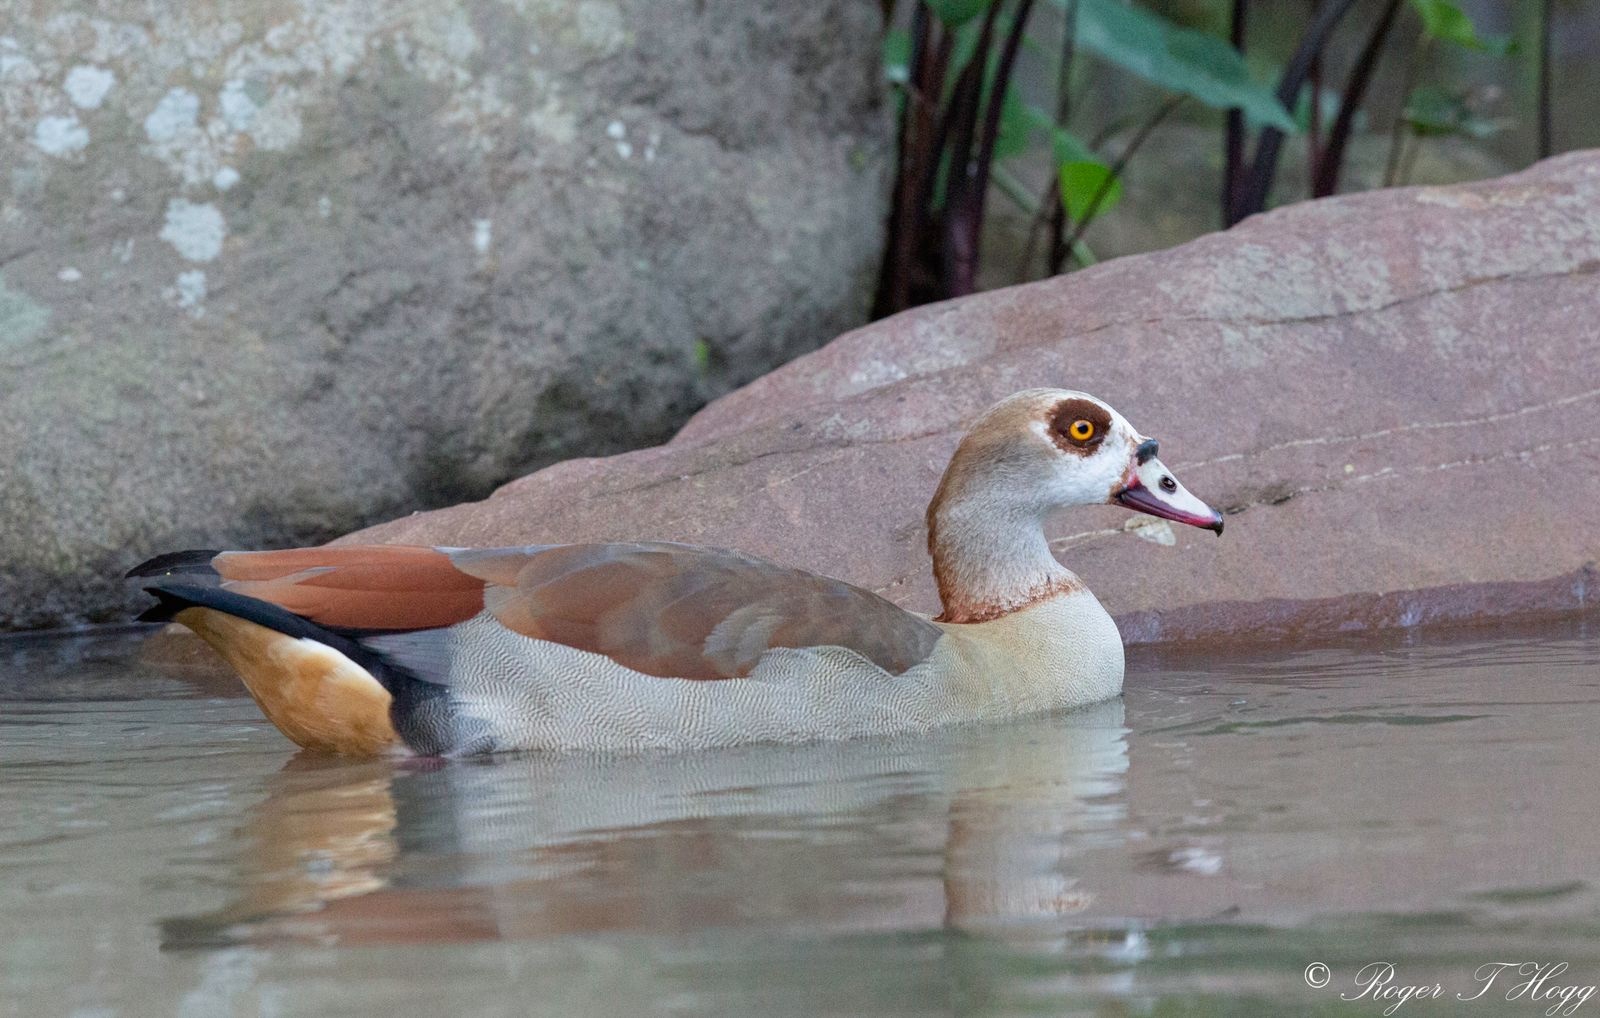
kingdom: Animalia
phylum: Chordata
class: Aves
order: Anseriformes
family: Anatidae
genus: Alopochen
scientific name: Alopochen aegyptiaca
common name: Egyptian goose
